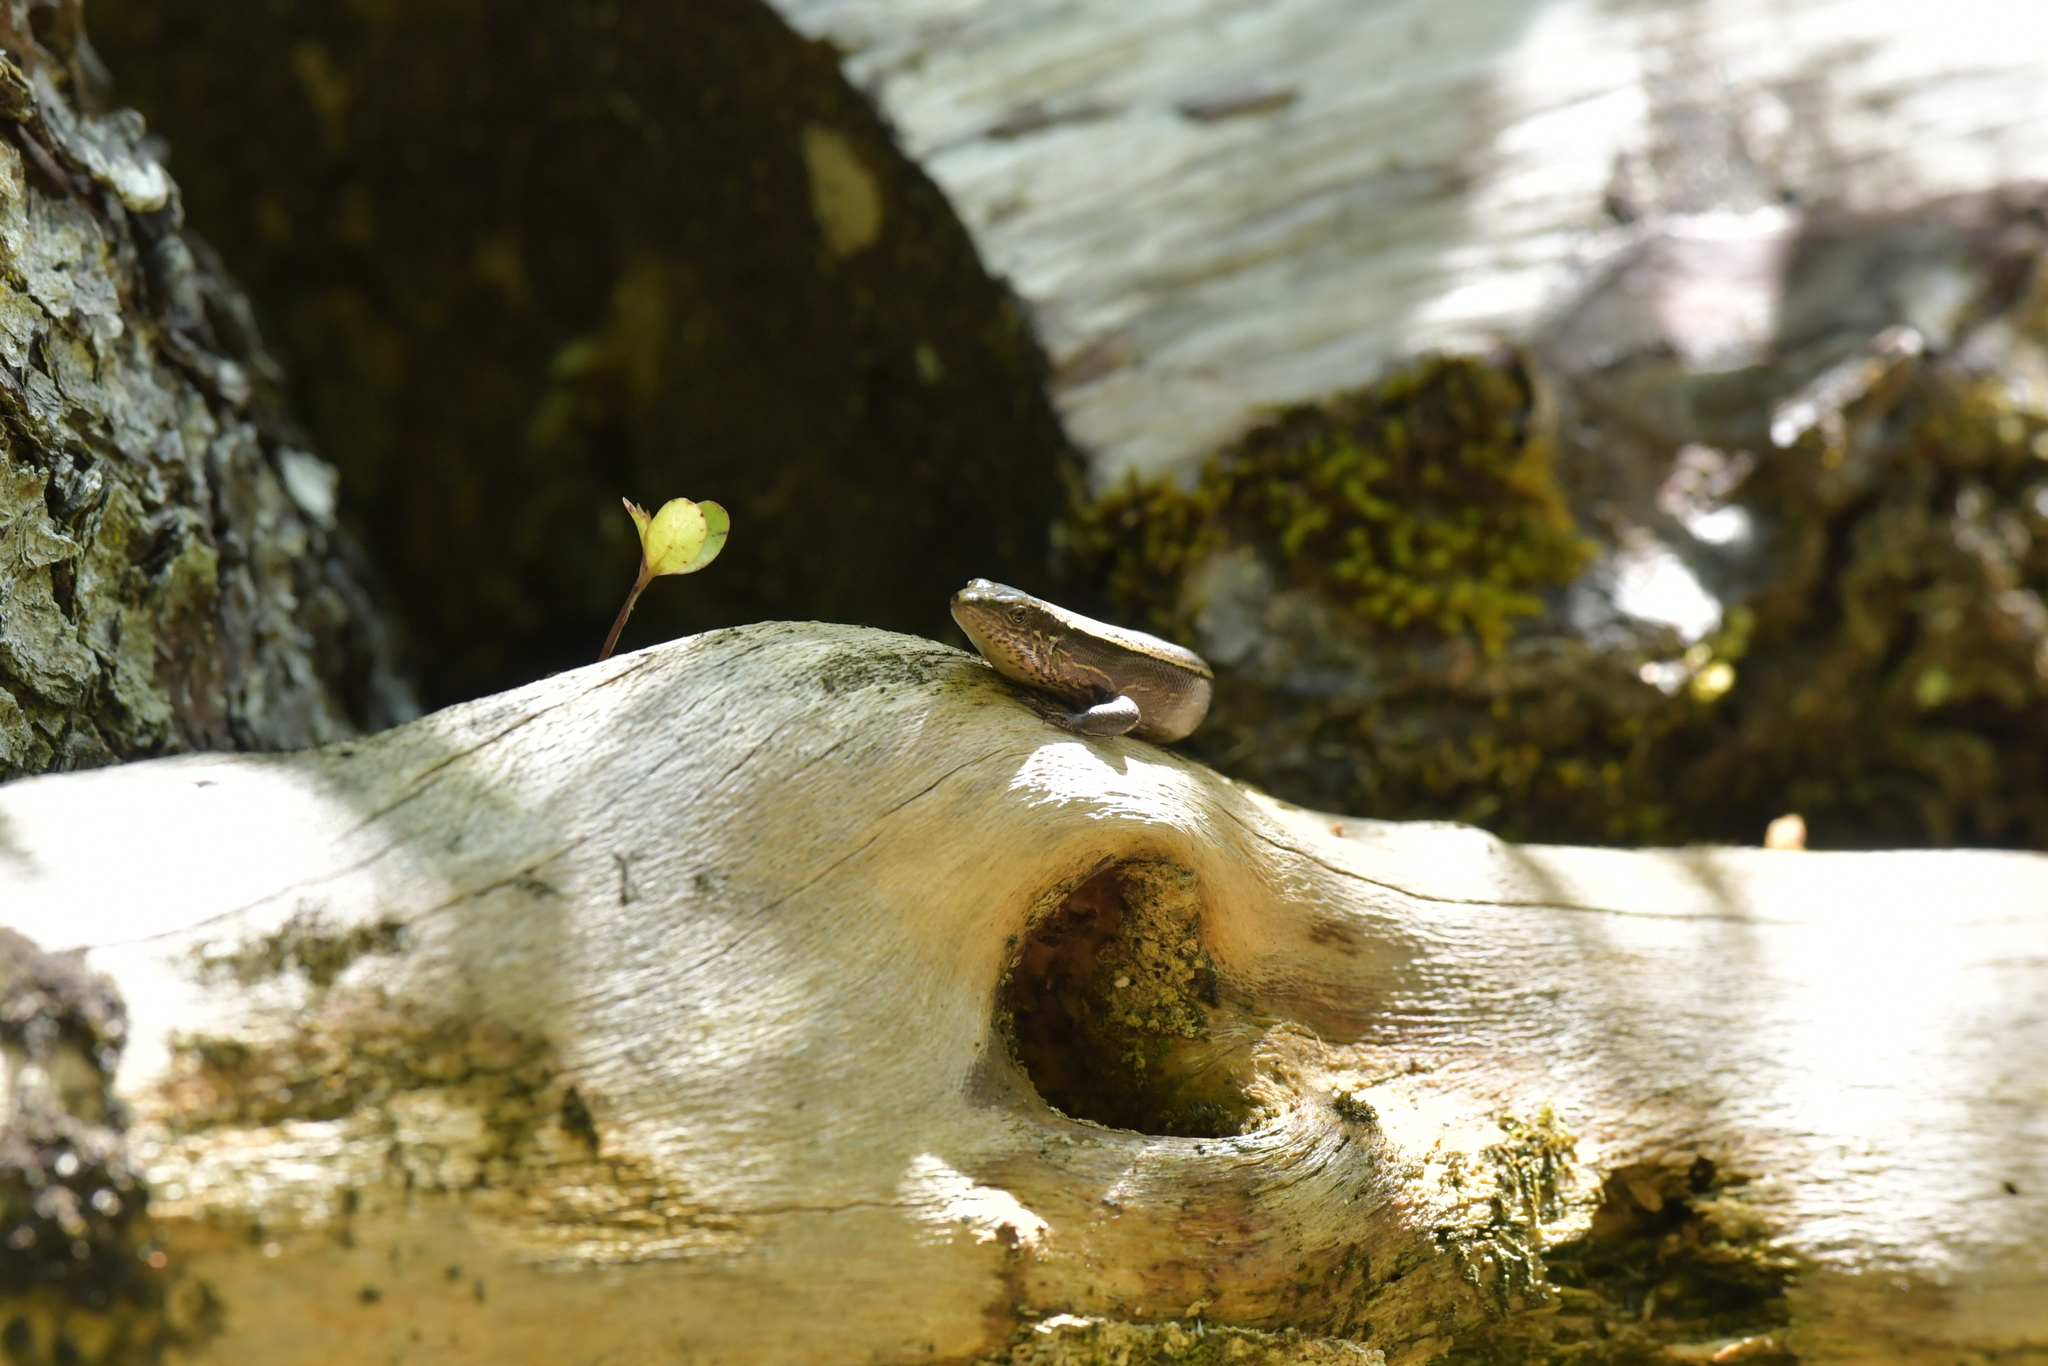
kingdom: Animalia
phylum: Chordata
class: Squamata
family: Scincidae
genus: Oligosoma
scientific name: Oligosoma zelandicum
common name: Brown skink
